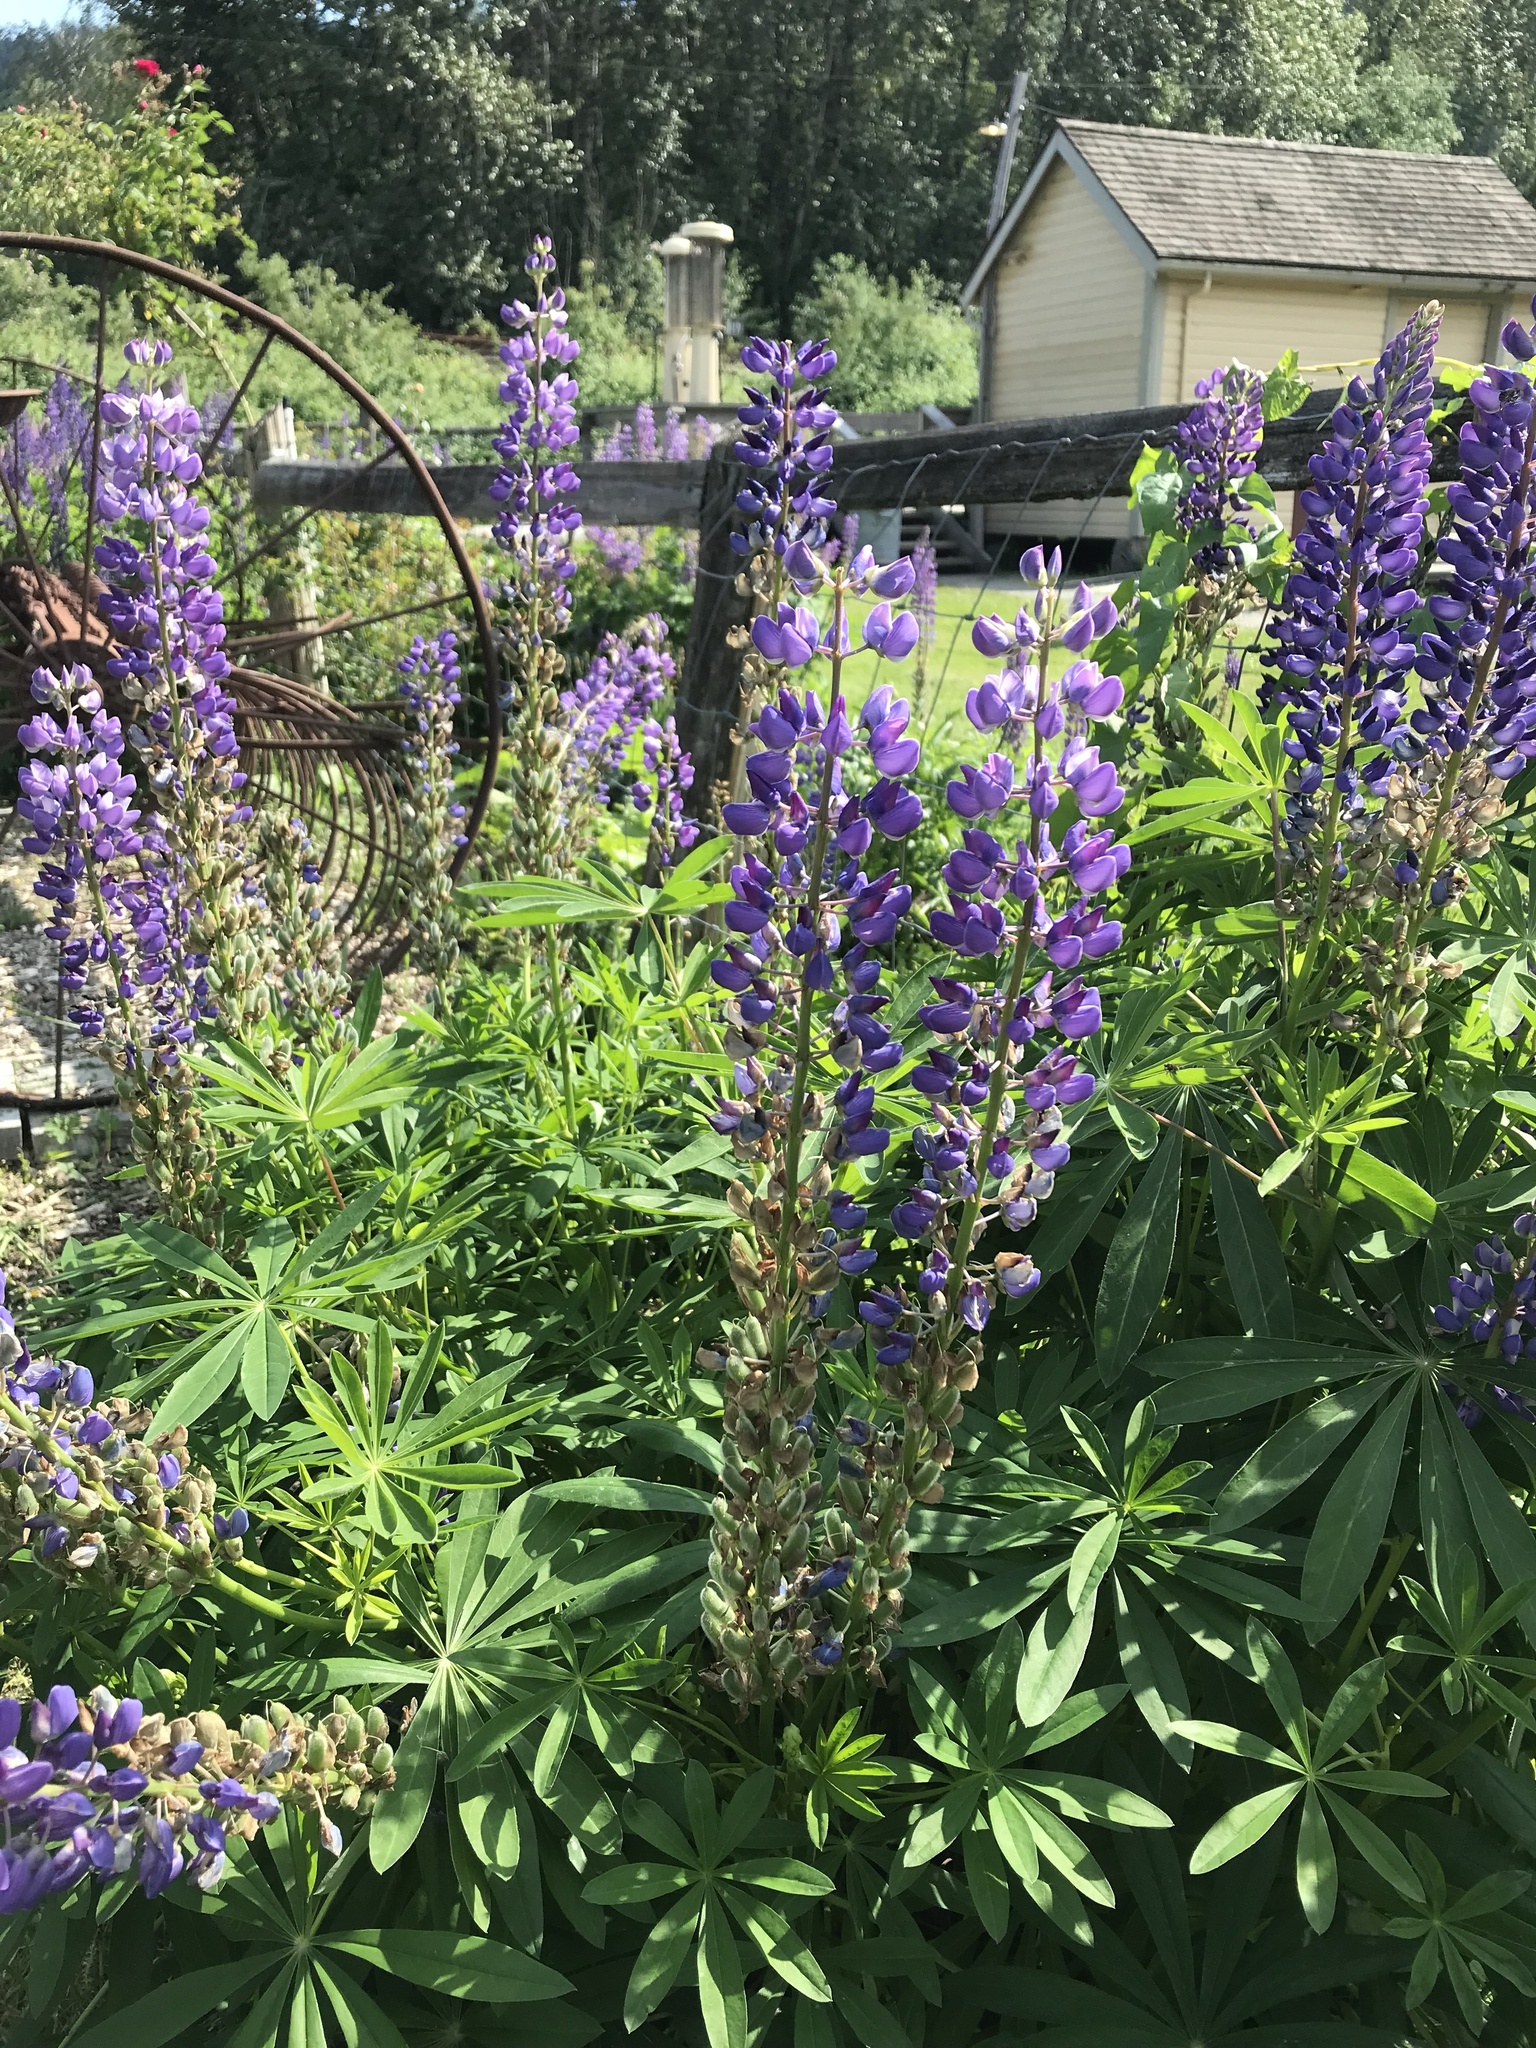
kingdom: Plantae
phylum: Tracheophyta
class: Magnoliopsida
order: Fabales
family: Fabaceae
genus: Lupinus
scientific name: Lupinus polyphyllus
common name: Garden lupin
